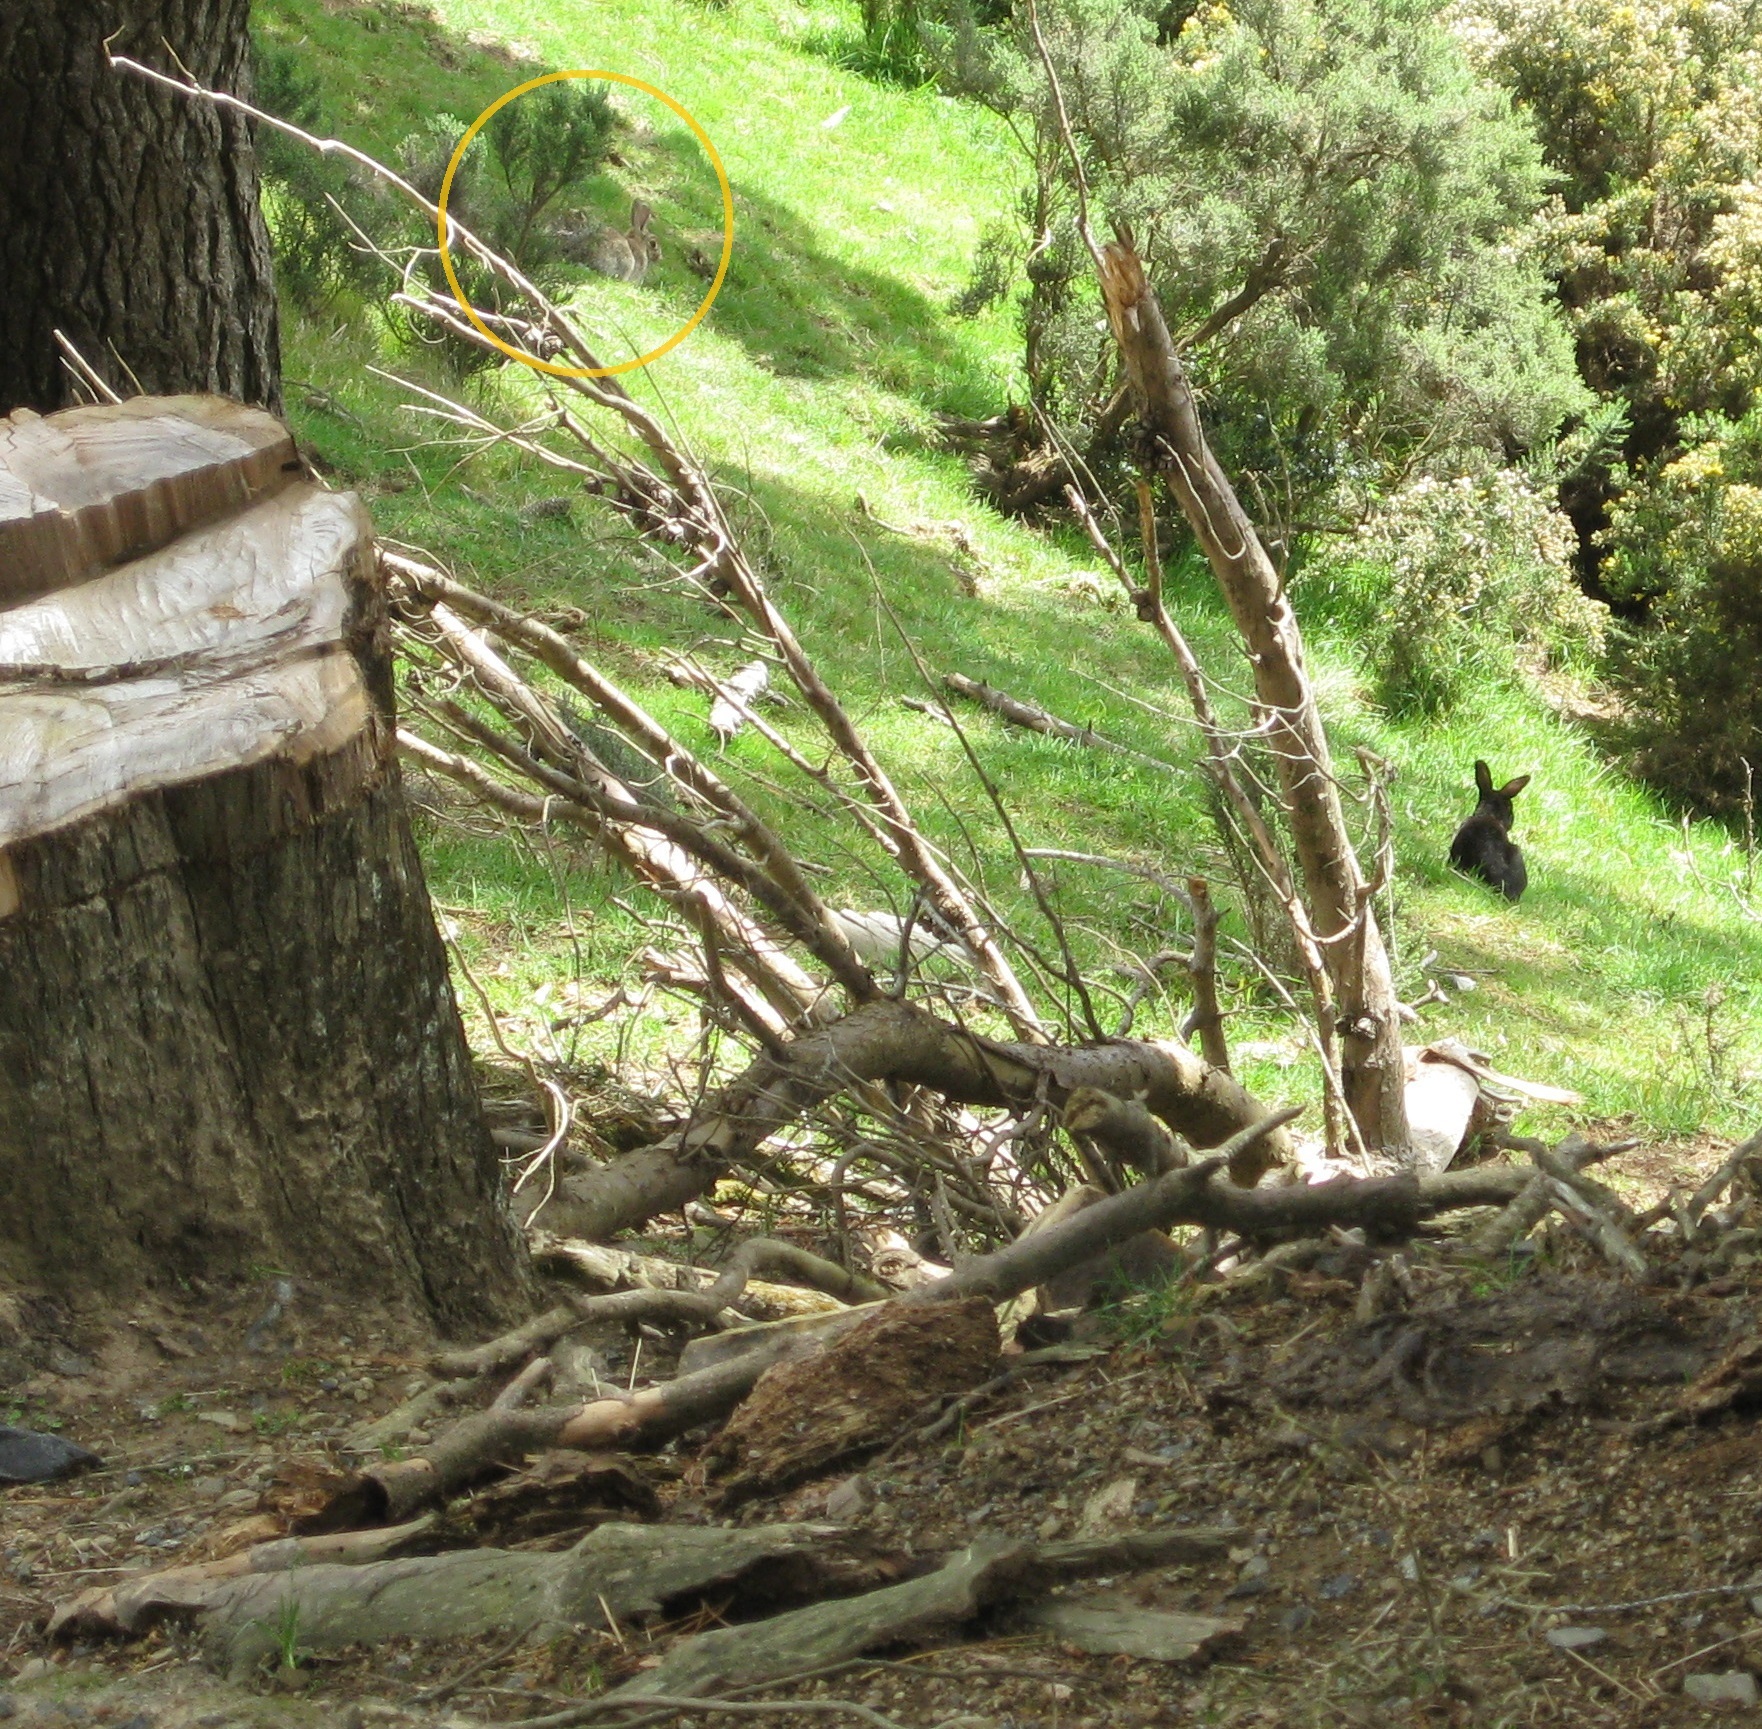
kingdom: Animalia
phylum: Chordata
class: Mammalia
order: Lagomorpha
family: Leporidae
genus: Oryctolagus
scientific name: Oryctolagus cuniculus
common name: European rabbit
